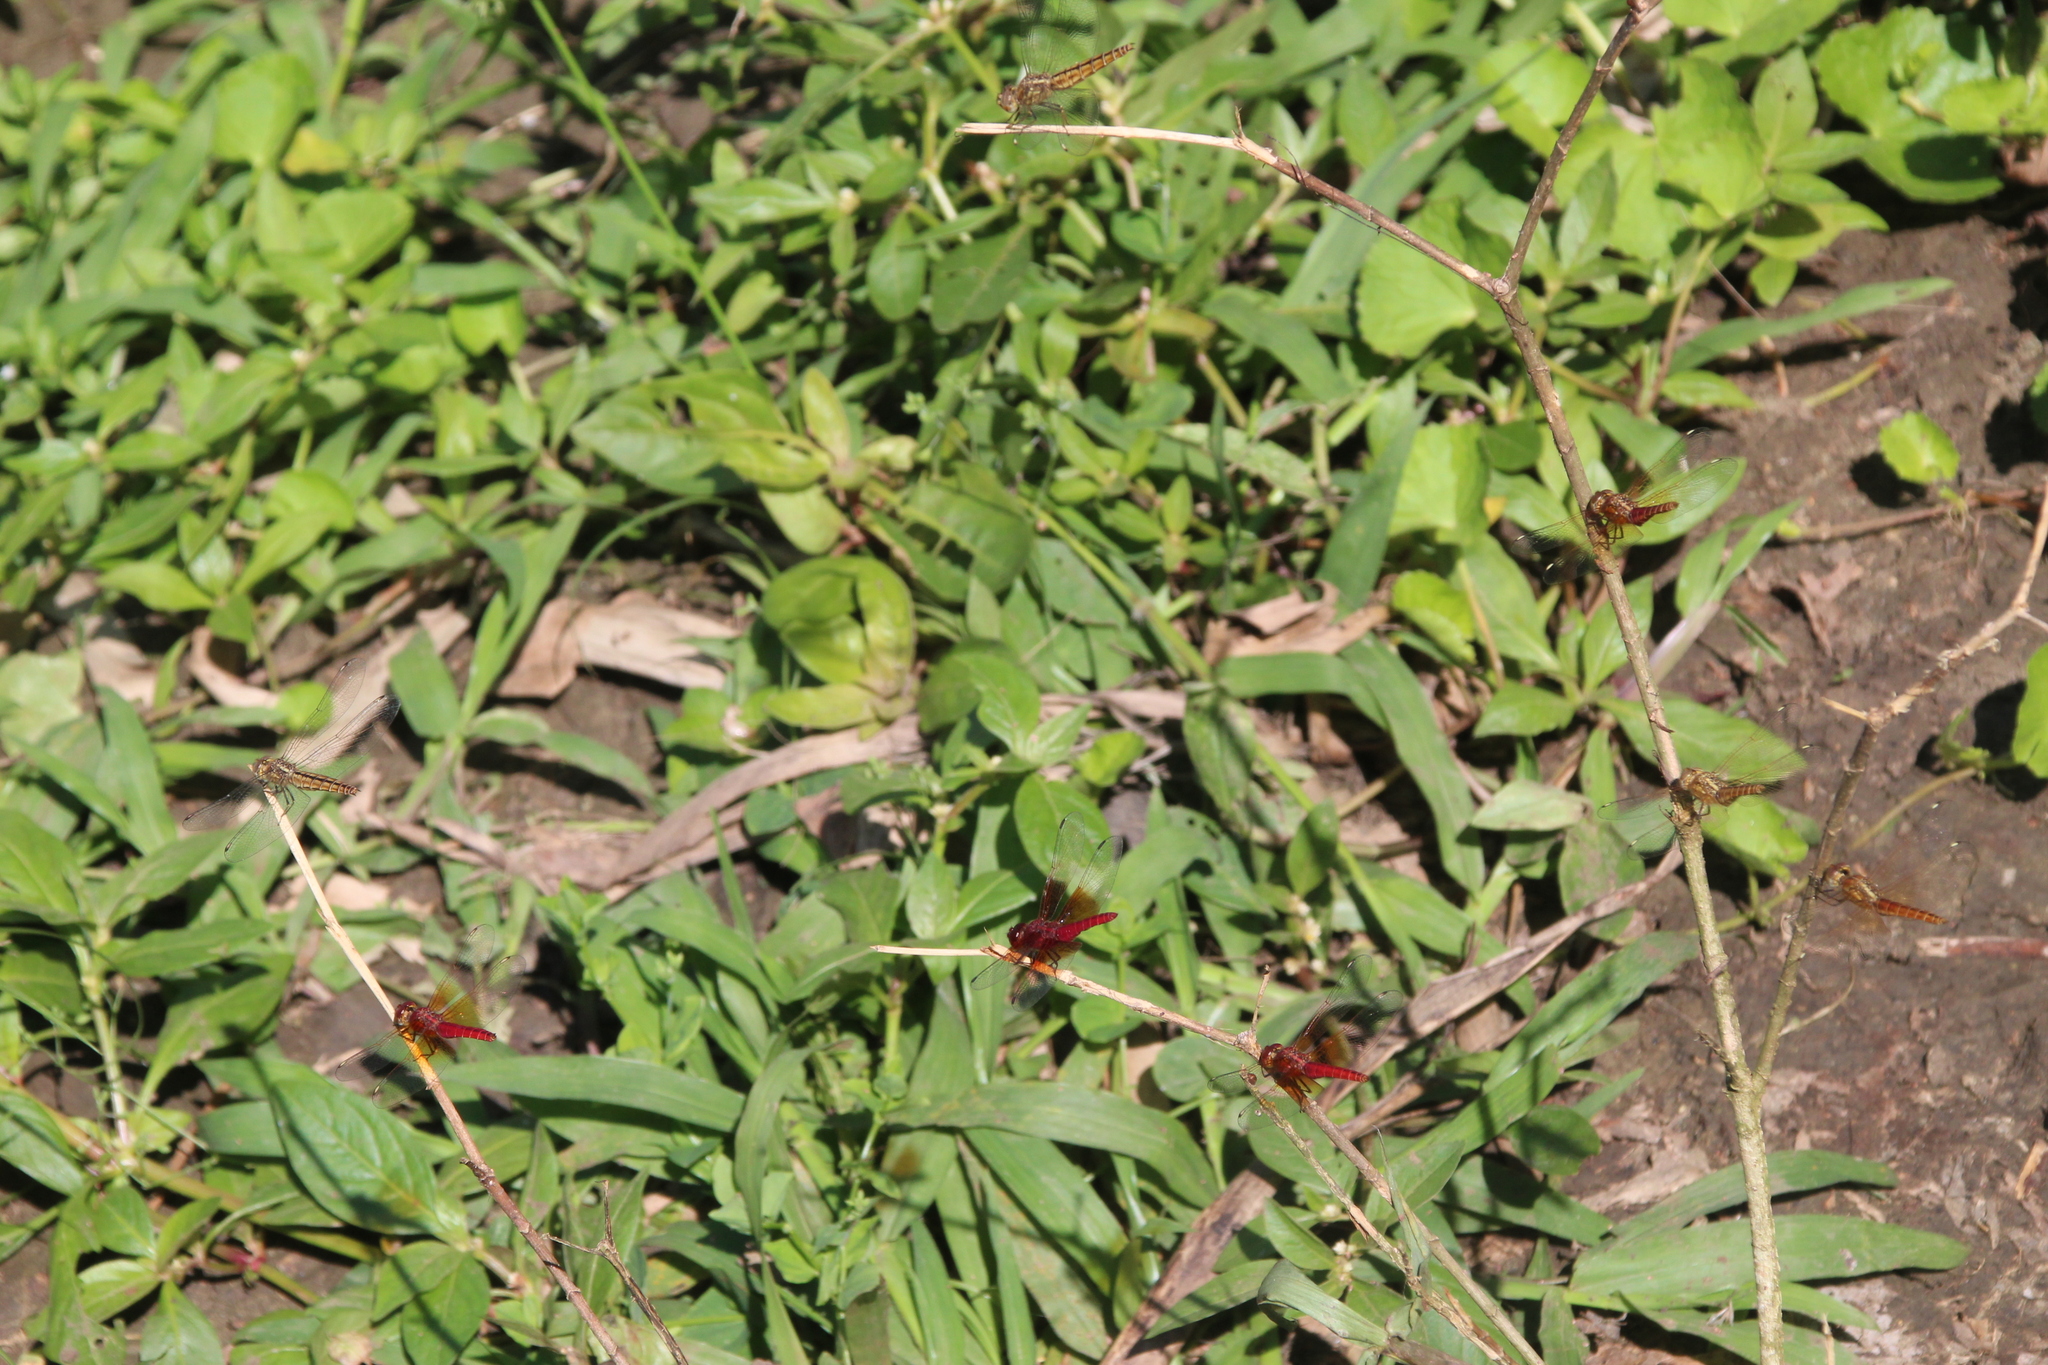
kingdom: Animalia
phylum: Arthropoda
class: Insecta
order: Odonata
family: Libellulidae
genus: Brachythemis
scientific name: Brachythemis lacustris
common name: Red groundling
